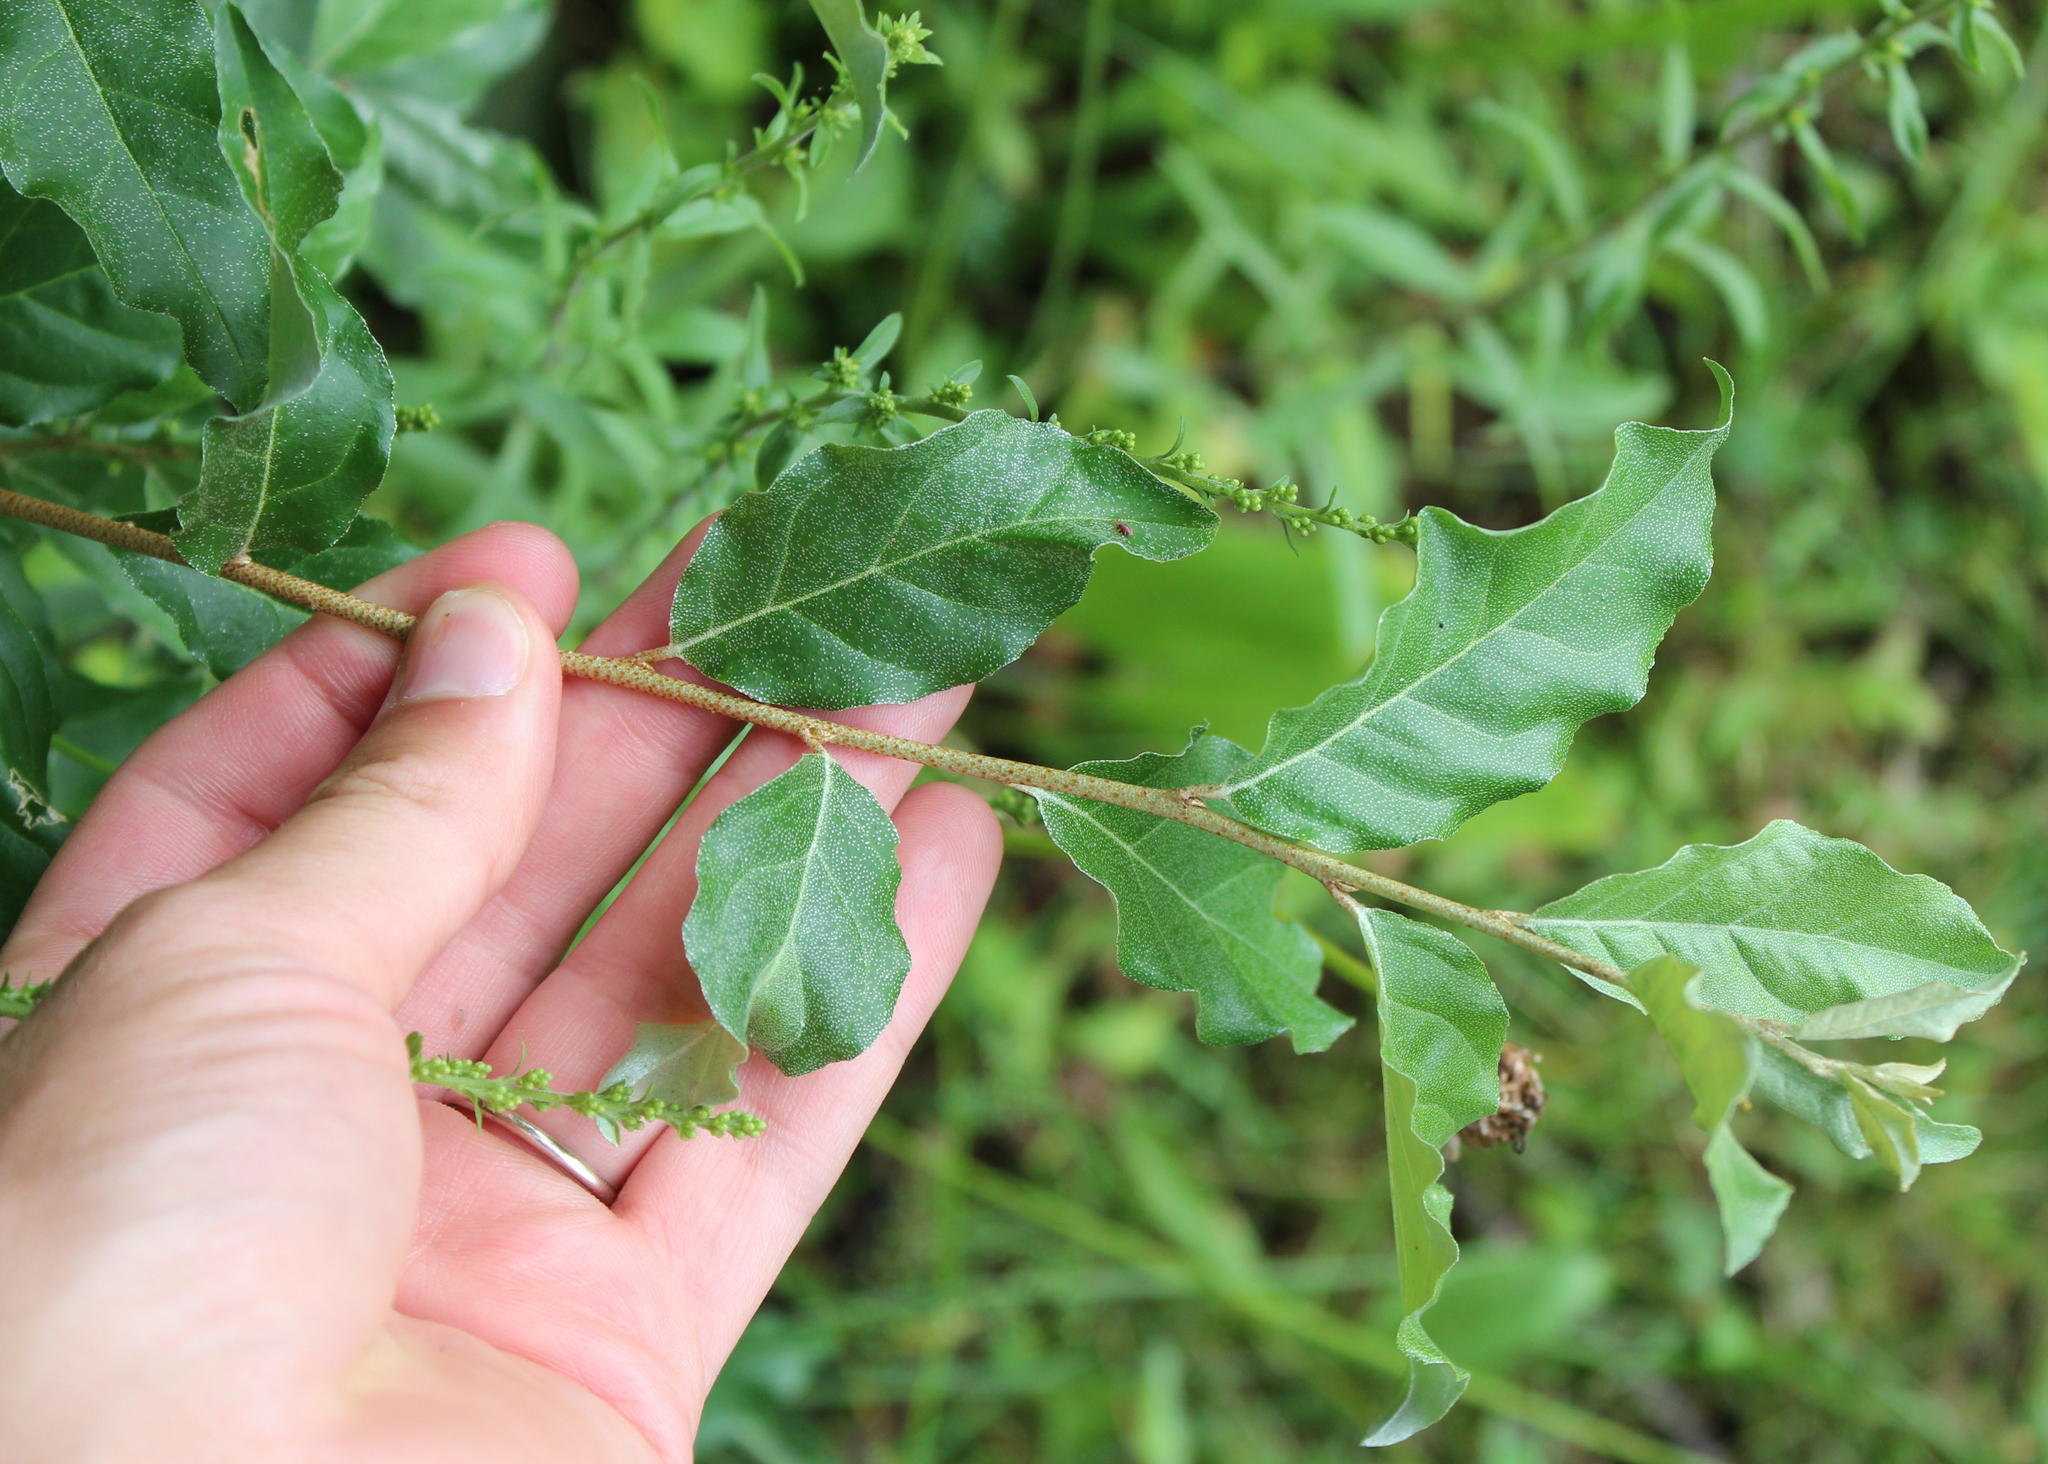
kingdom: Plantae
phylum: Tracheophyta
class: Magnoliopsida
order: Rosales
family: Elaeagnaceae
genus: Elaeagnus
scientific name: Elaeagnus umbellata
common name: Autumn olive
